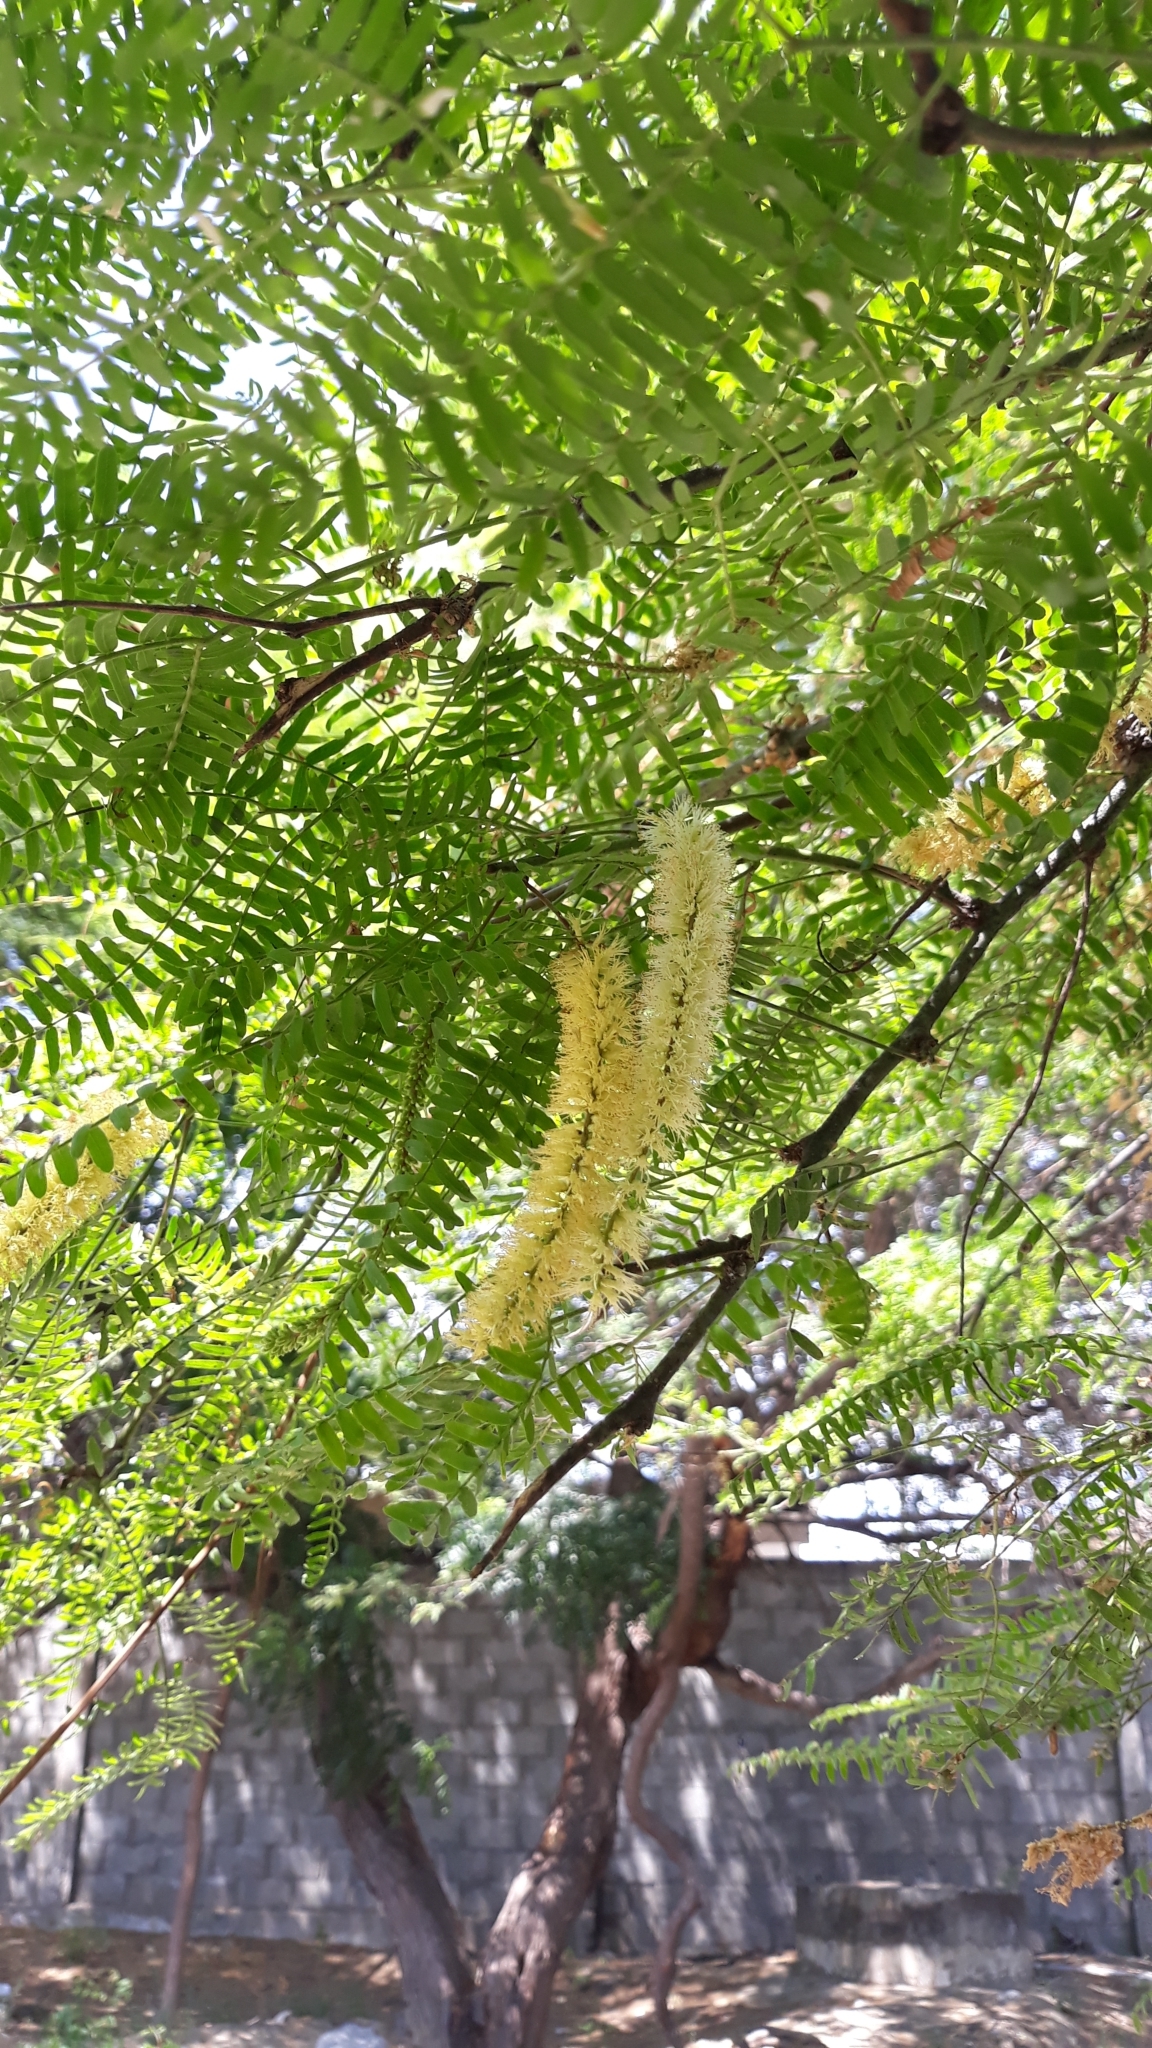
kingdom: Plantae
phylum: Tracheophyta
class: Magnoliopsida
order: Fabales
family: Fabaceae
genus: Prosopis
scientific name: Prosopis pallida
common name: Mesquite
